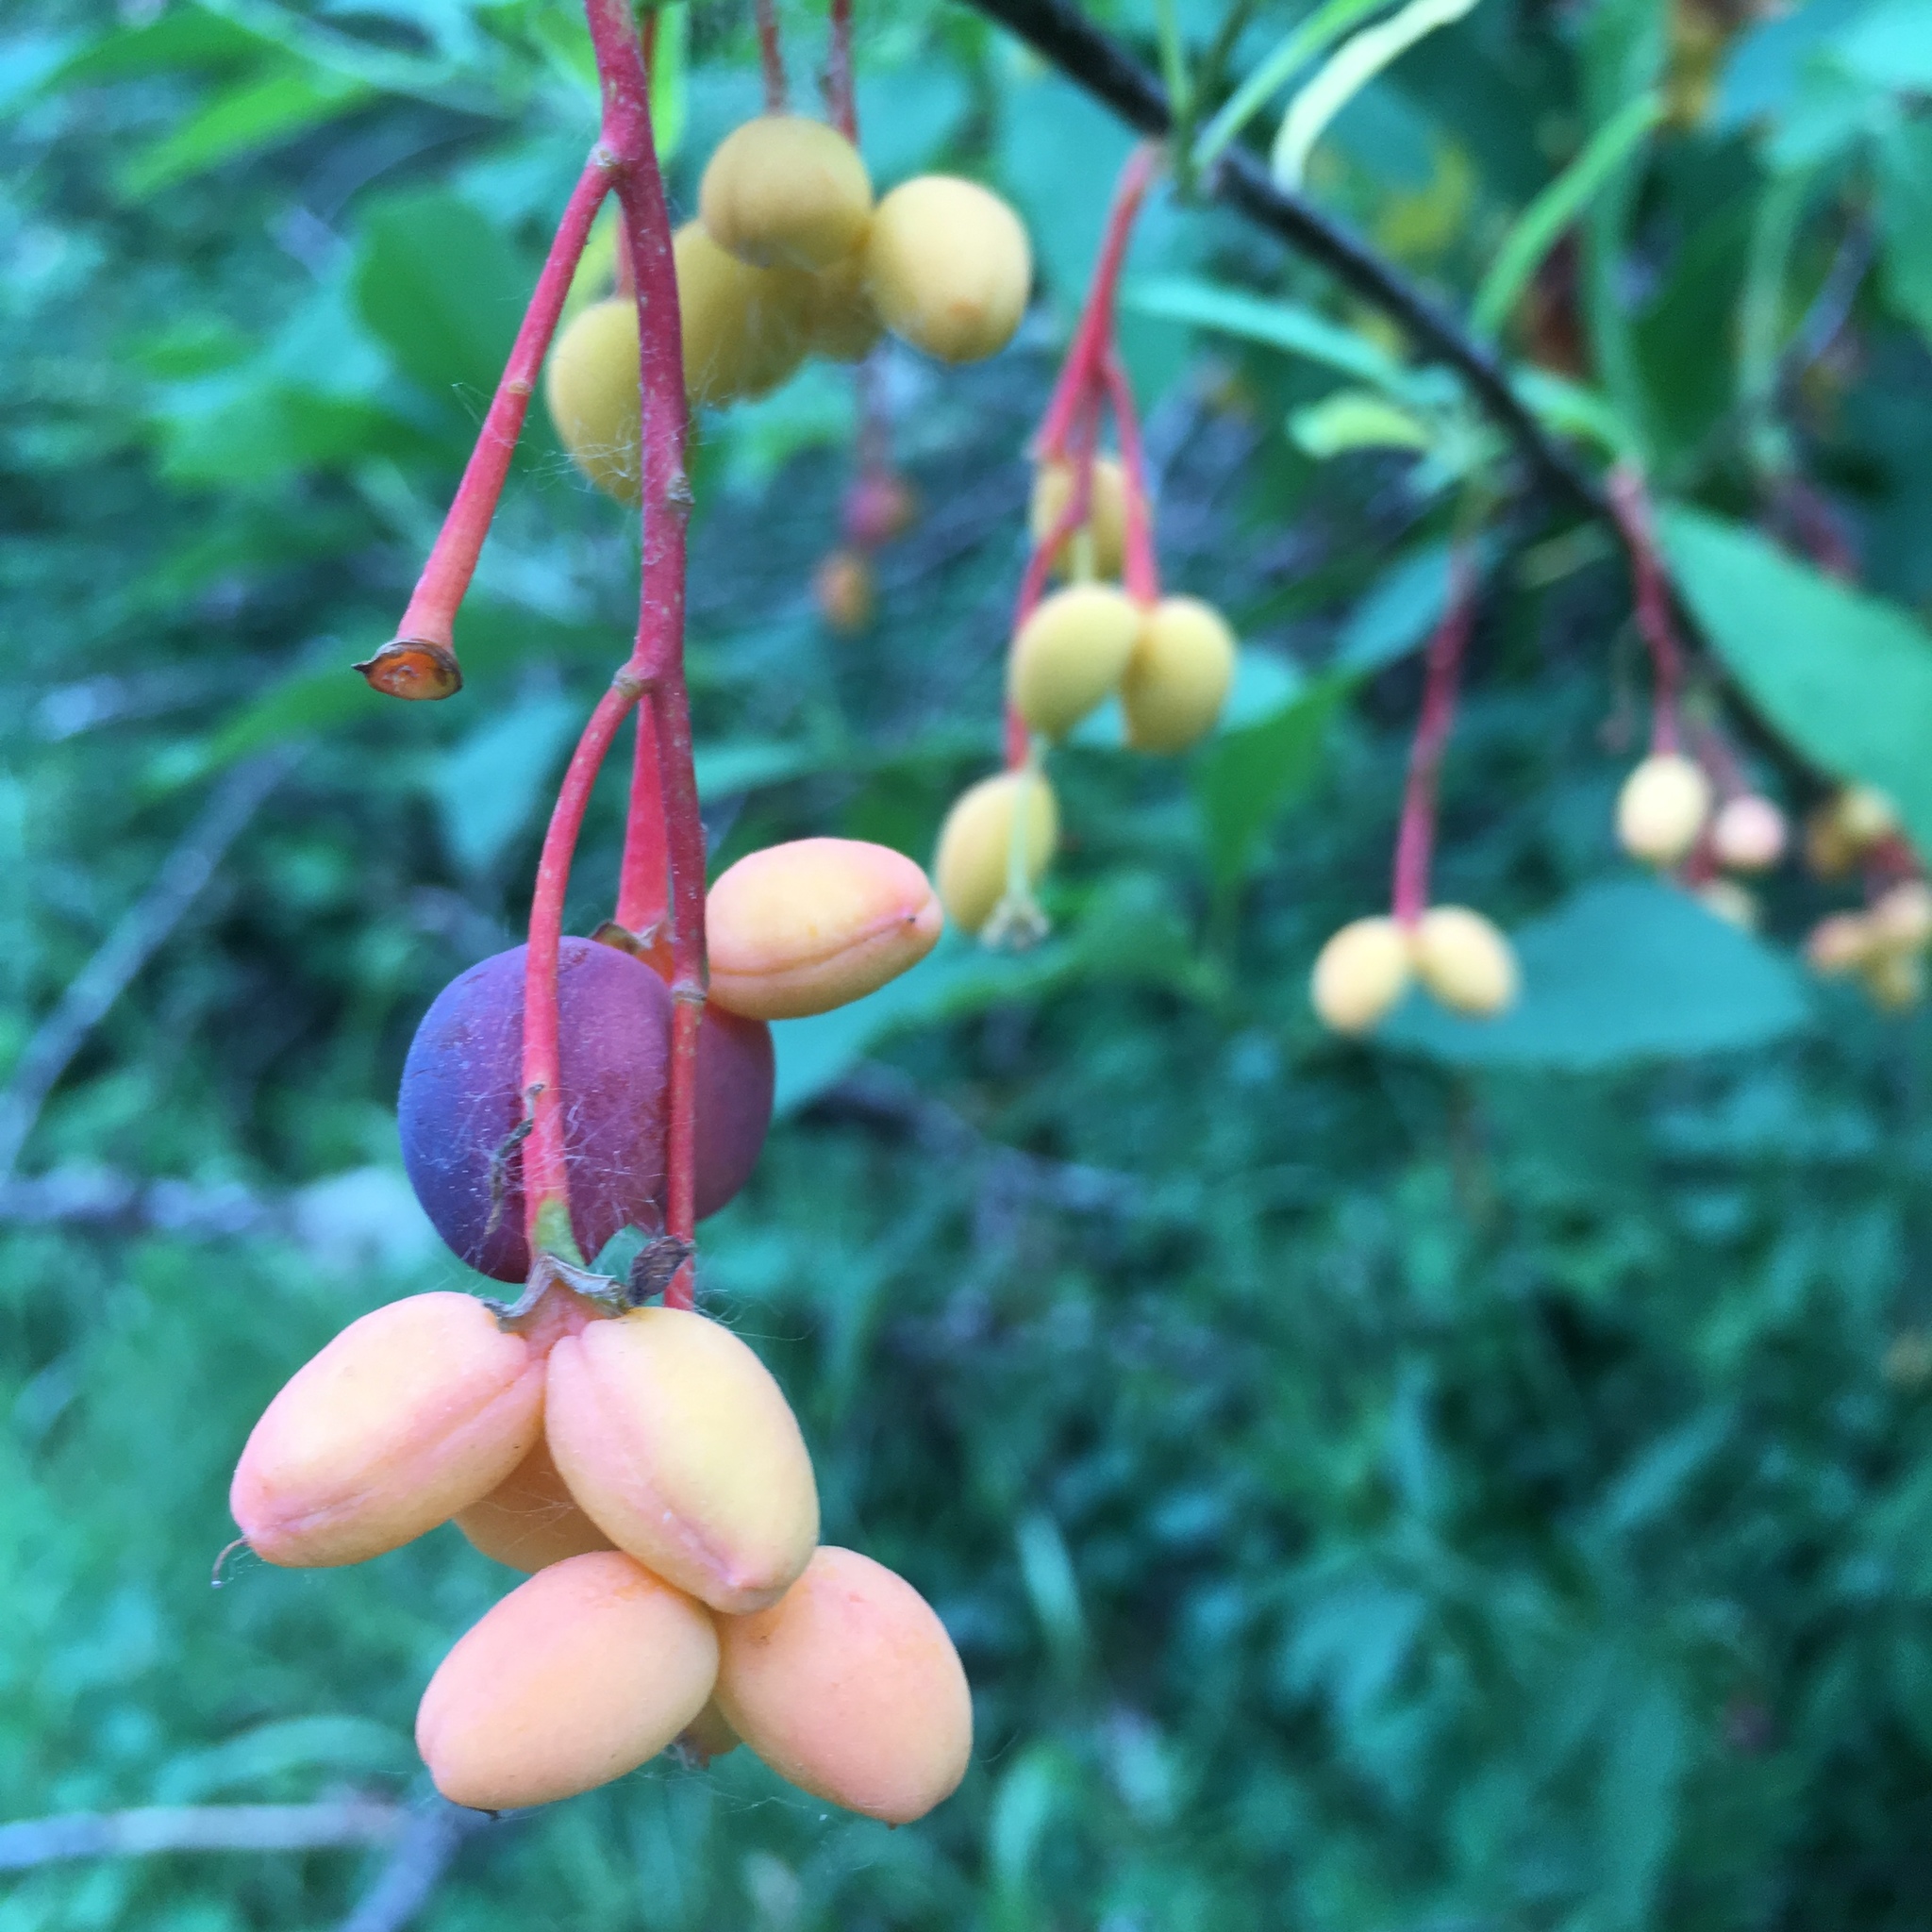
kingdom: Plantae
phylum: Tracheophyta
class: Magnoliopsida
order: Rosales
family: Rosaceae
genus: Oemleria
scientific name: Oemleria cerasiformis
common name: Osoberry
